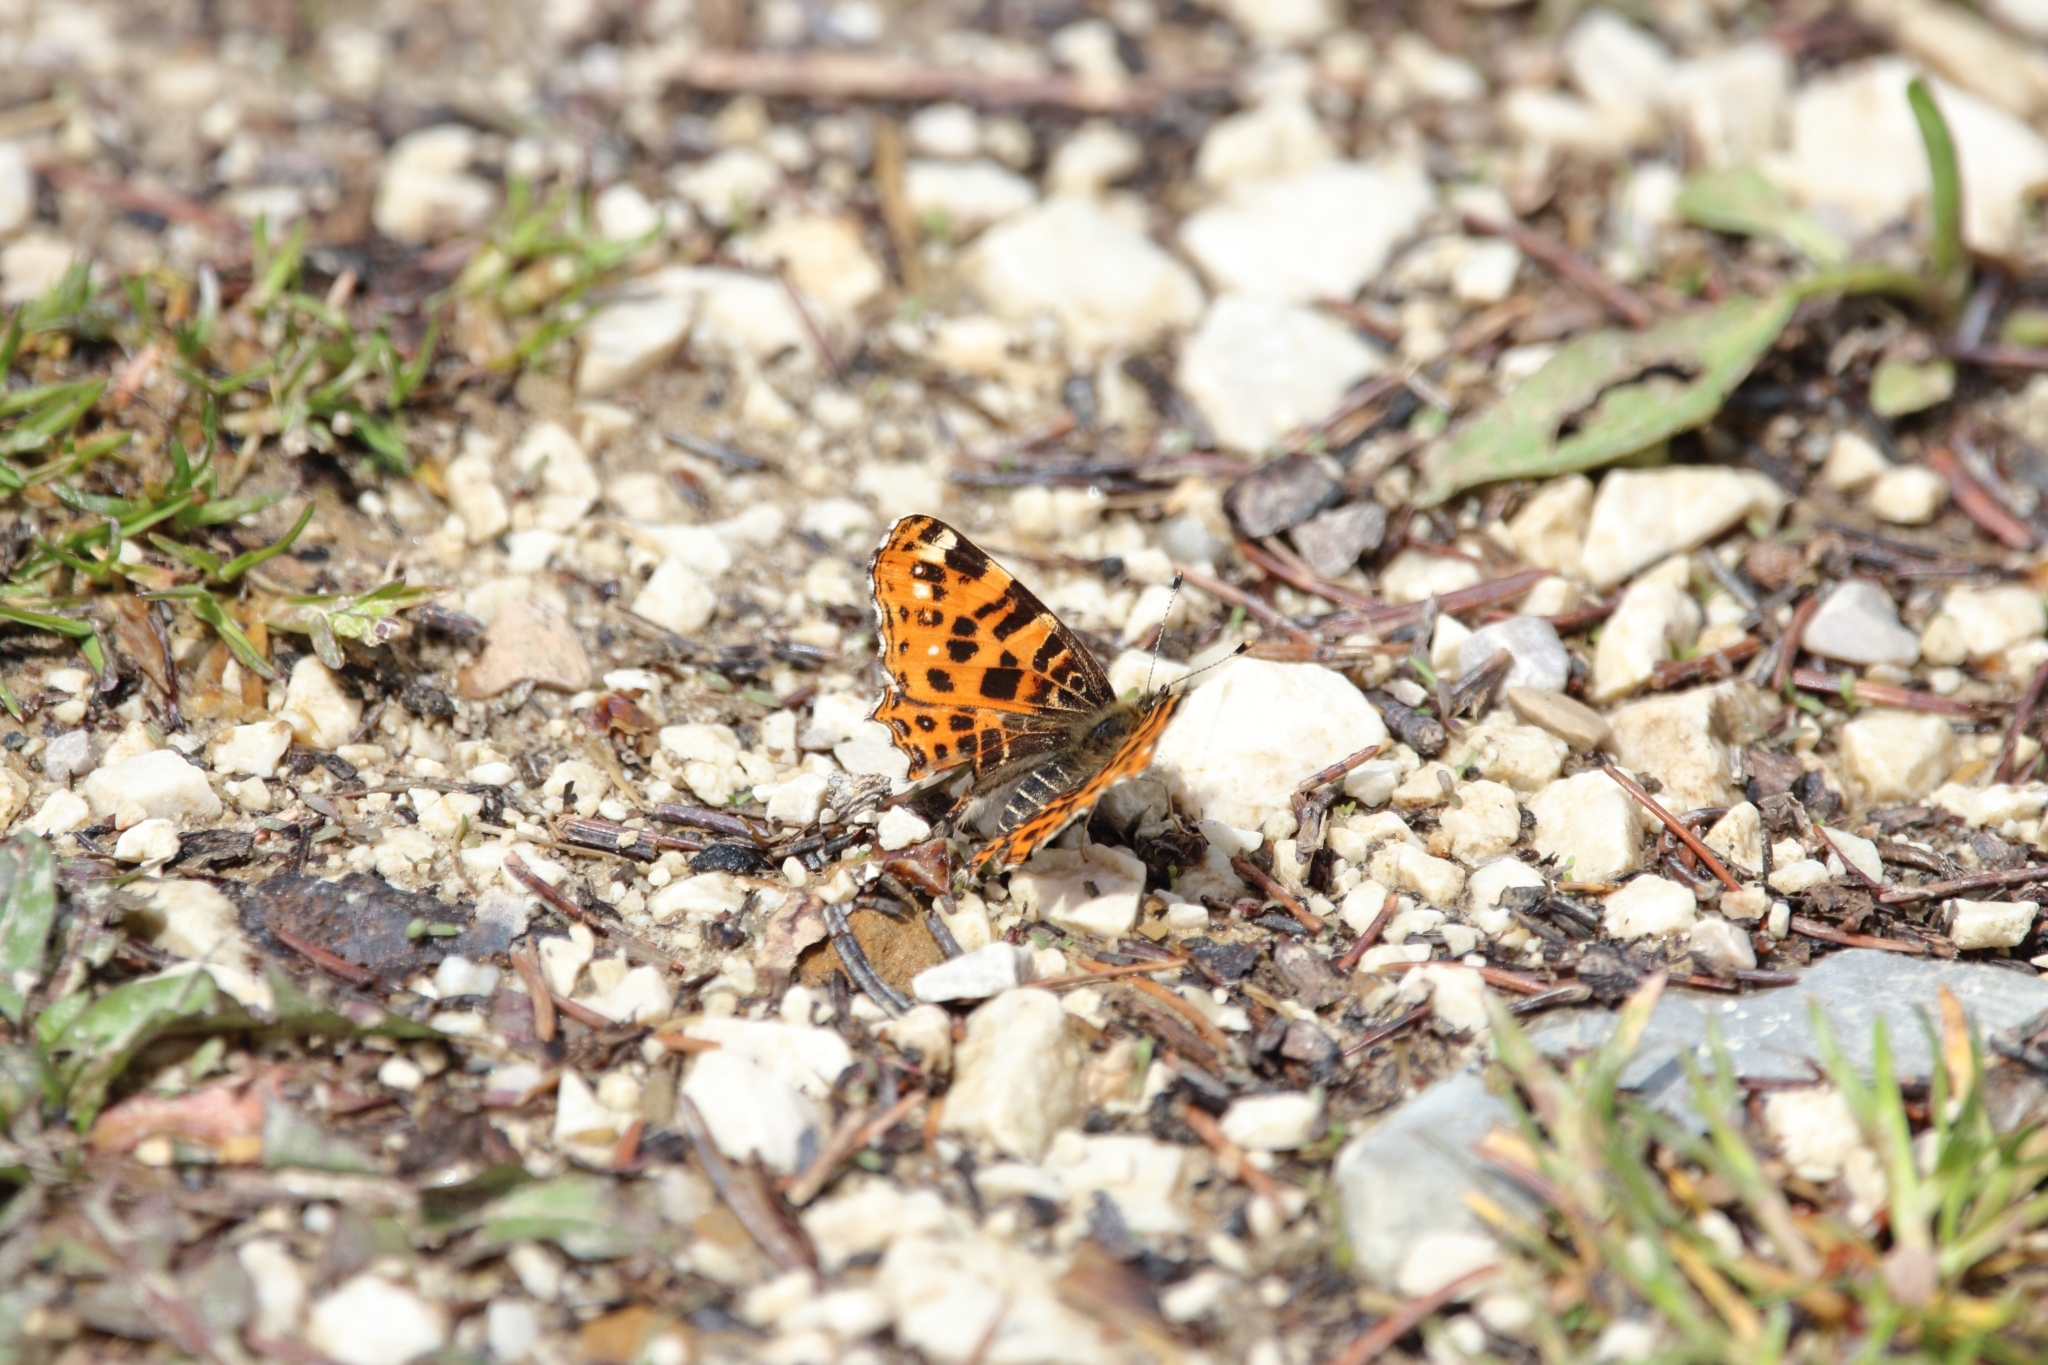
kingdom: Animalia
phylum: Arthropoda
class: Insecta
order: Lepidoptera
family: Nymphalidae
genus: Araschnia
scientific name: Araschnia levana
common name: Map butterfly
